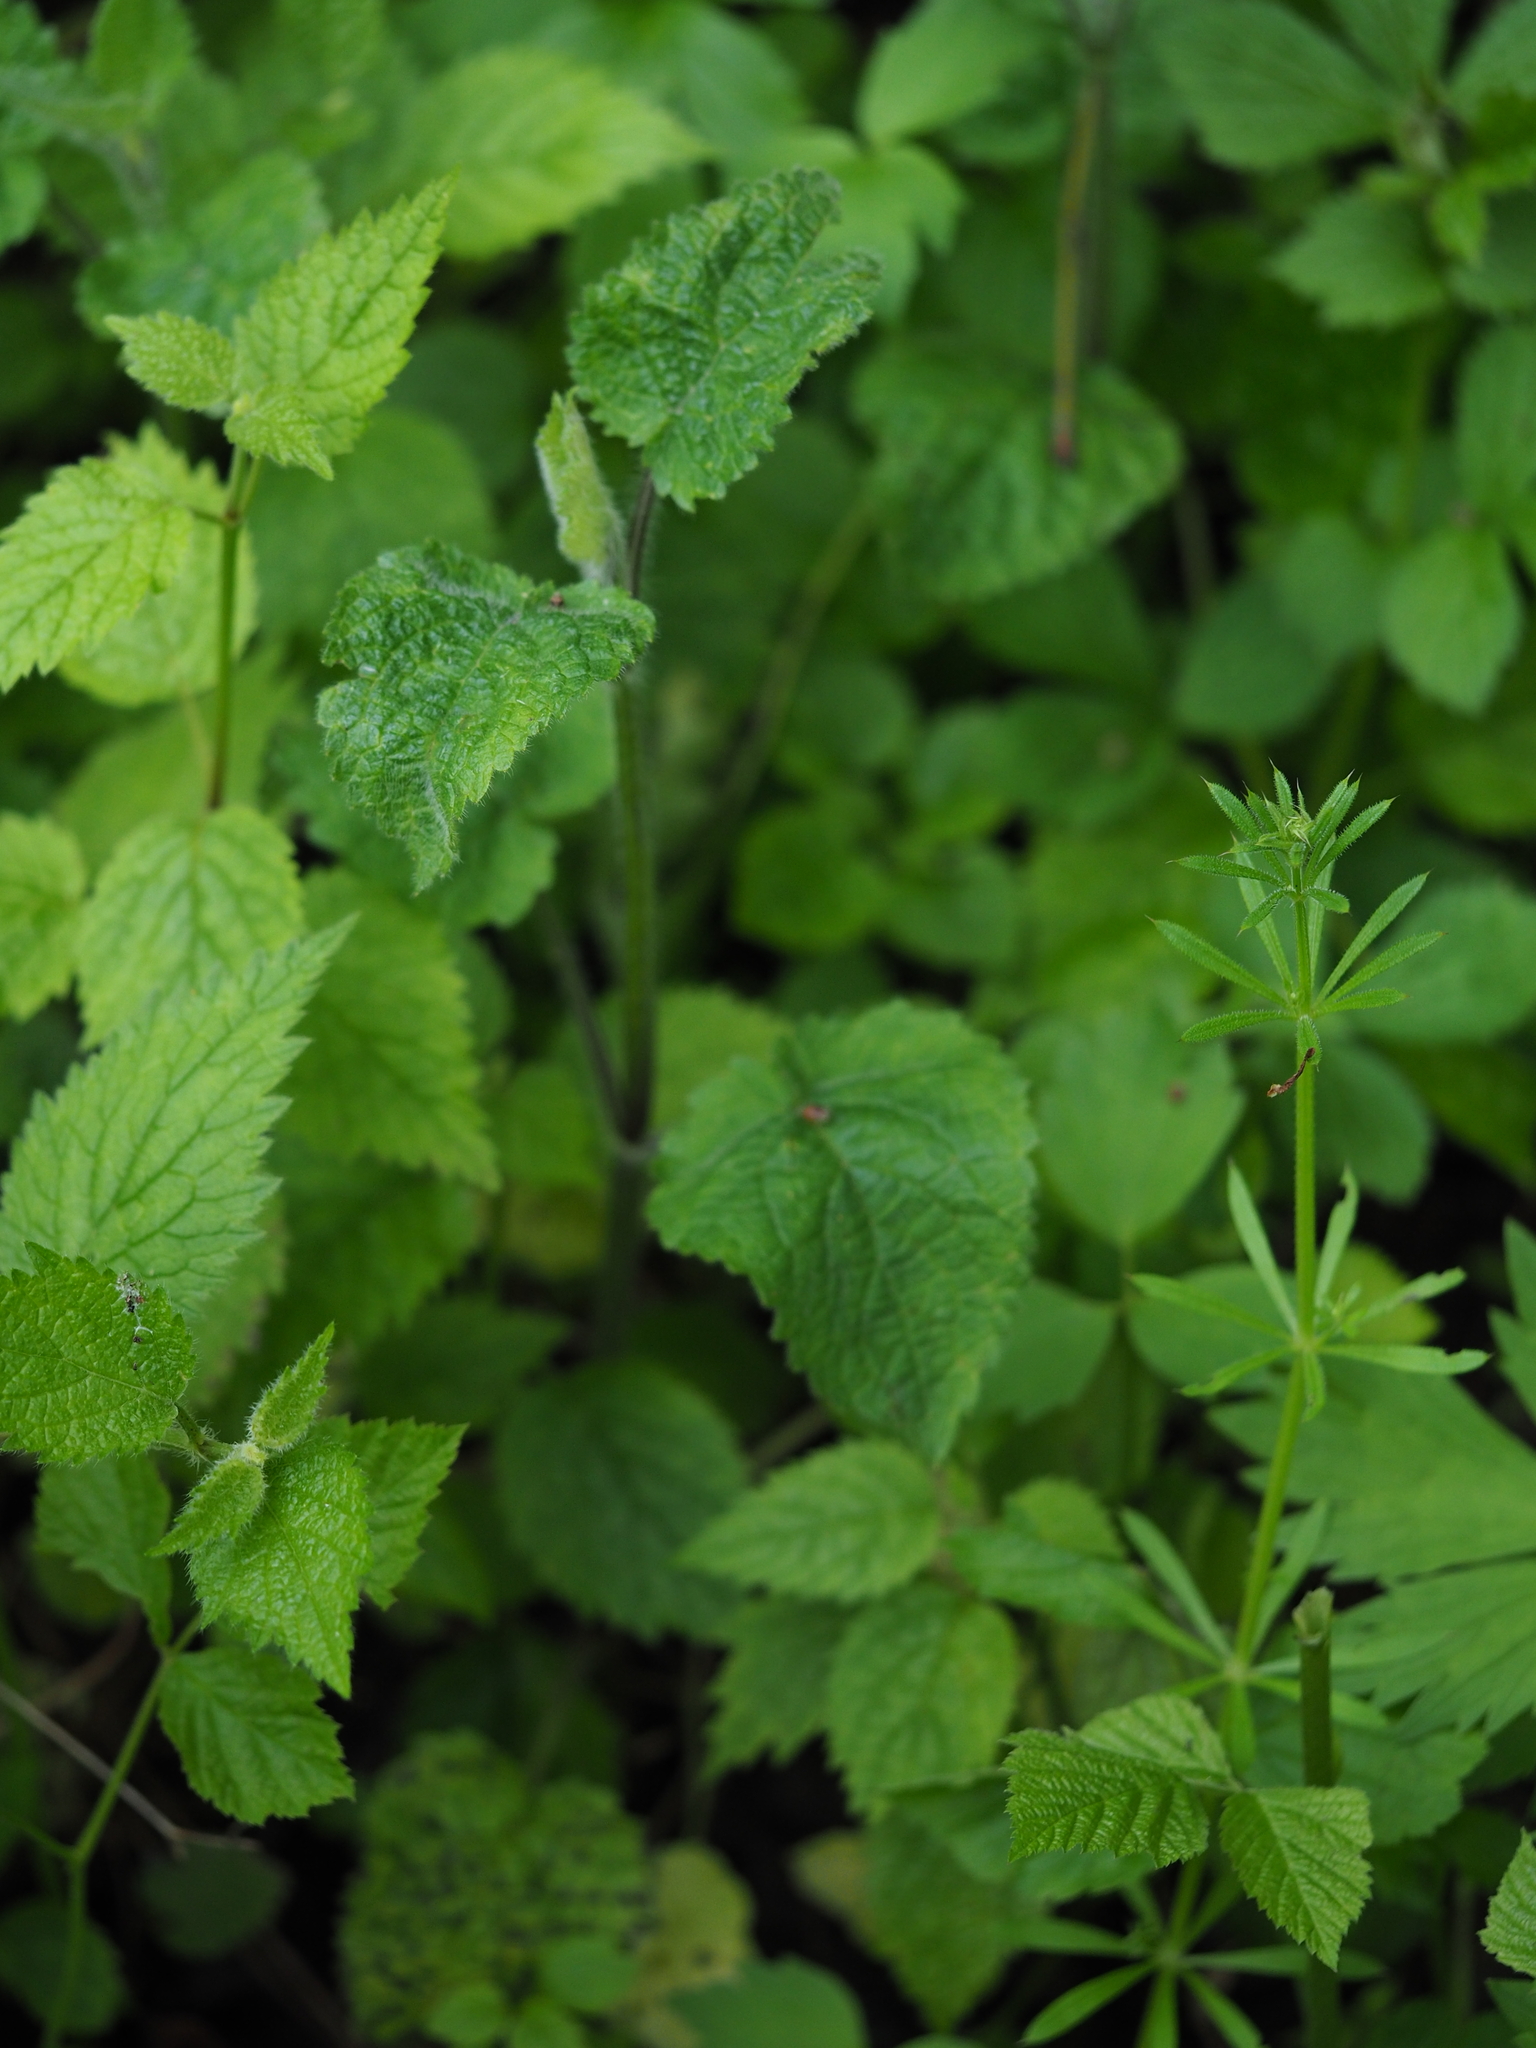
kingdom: Plantae
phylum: Tracheophyta
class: Magnoliopsida
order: Lamiales
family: Lamiaceae
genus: Stachys
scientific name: Stachys sylvatica
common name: Hedge woundwort
